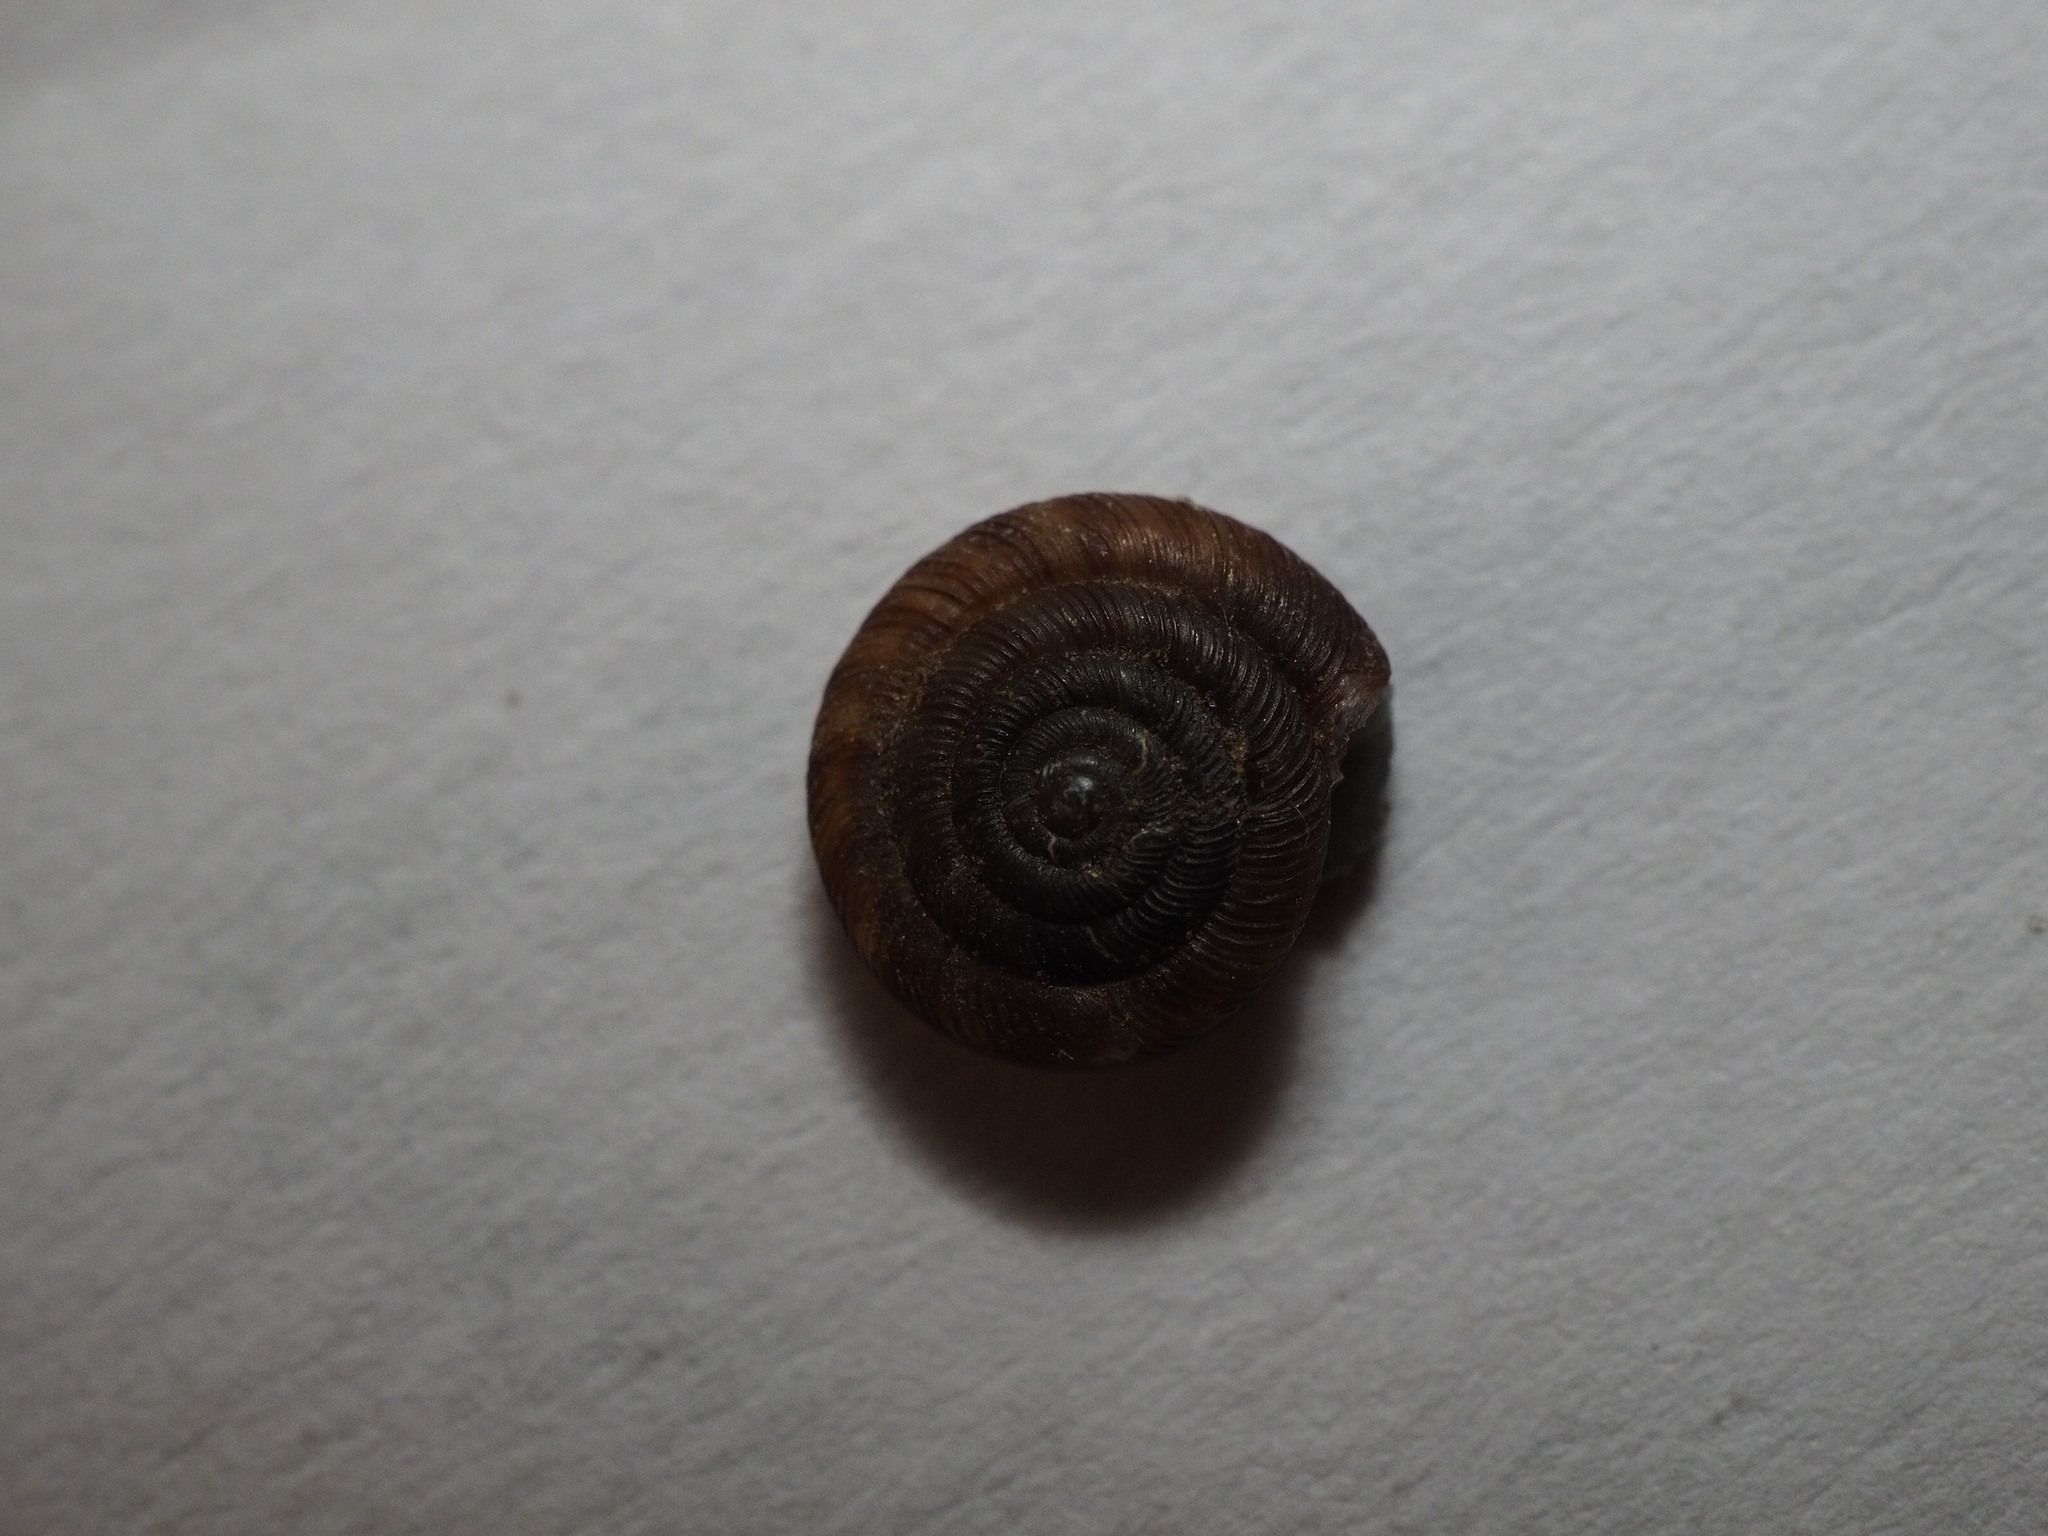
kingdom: Animalia
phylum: Mollusca
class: Gastropoda
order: Stylommatophora
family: Discidae
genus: Discus
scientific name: Discus rotundatus
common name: Rounded snail
